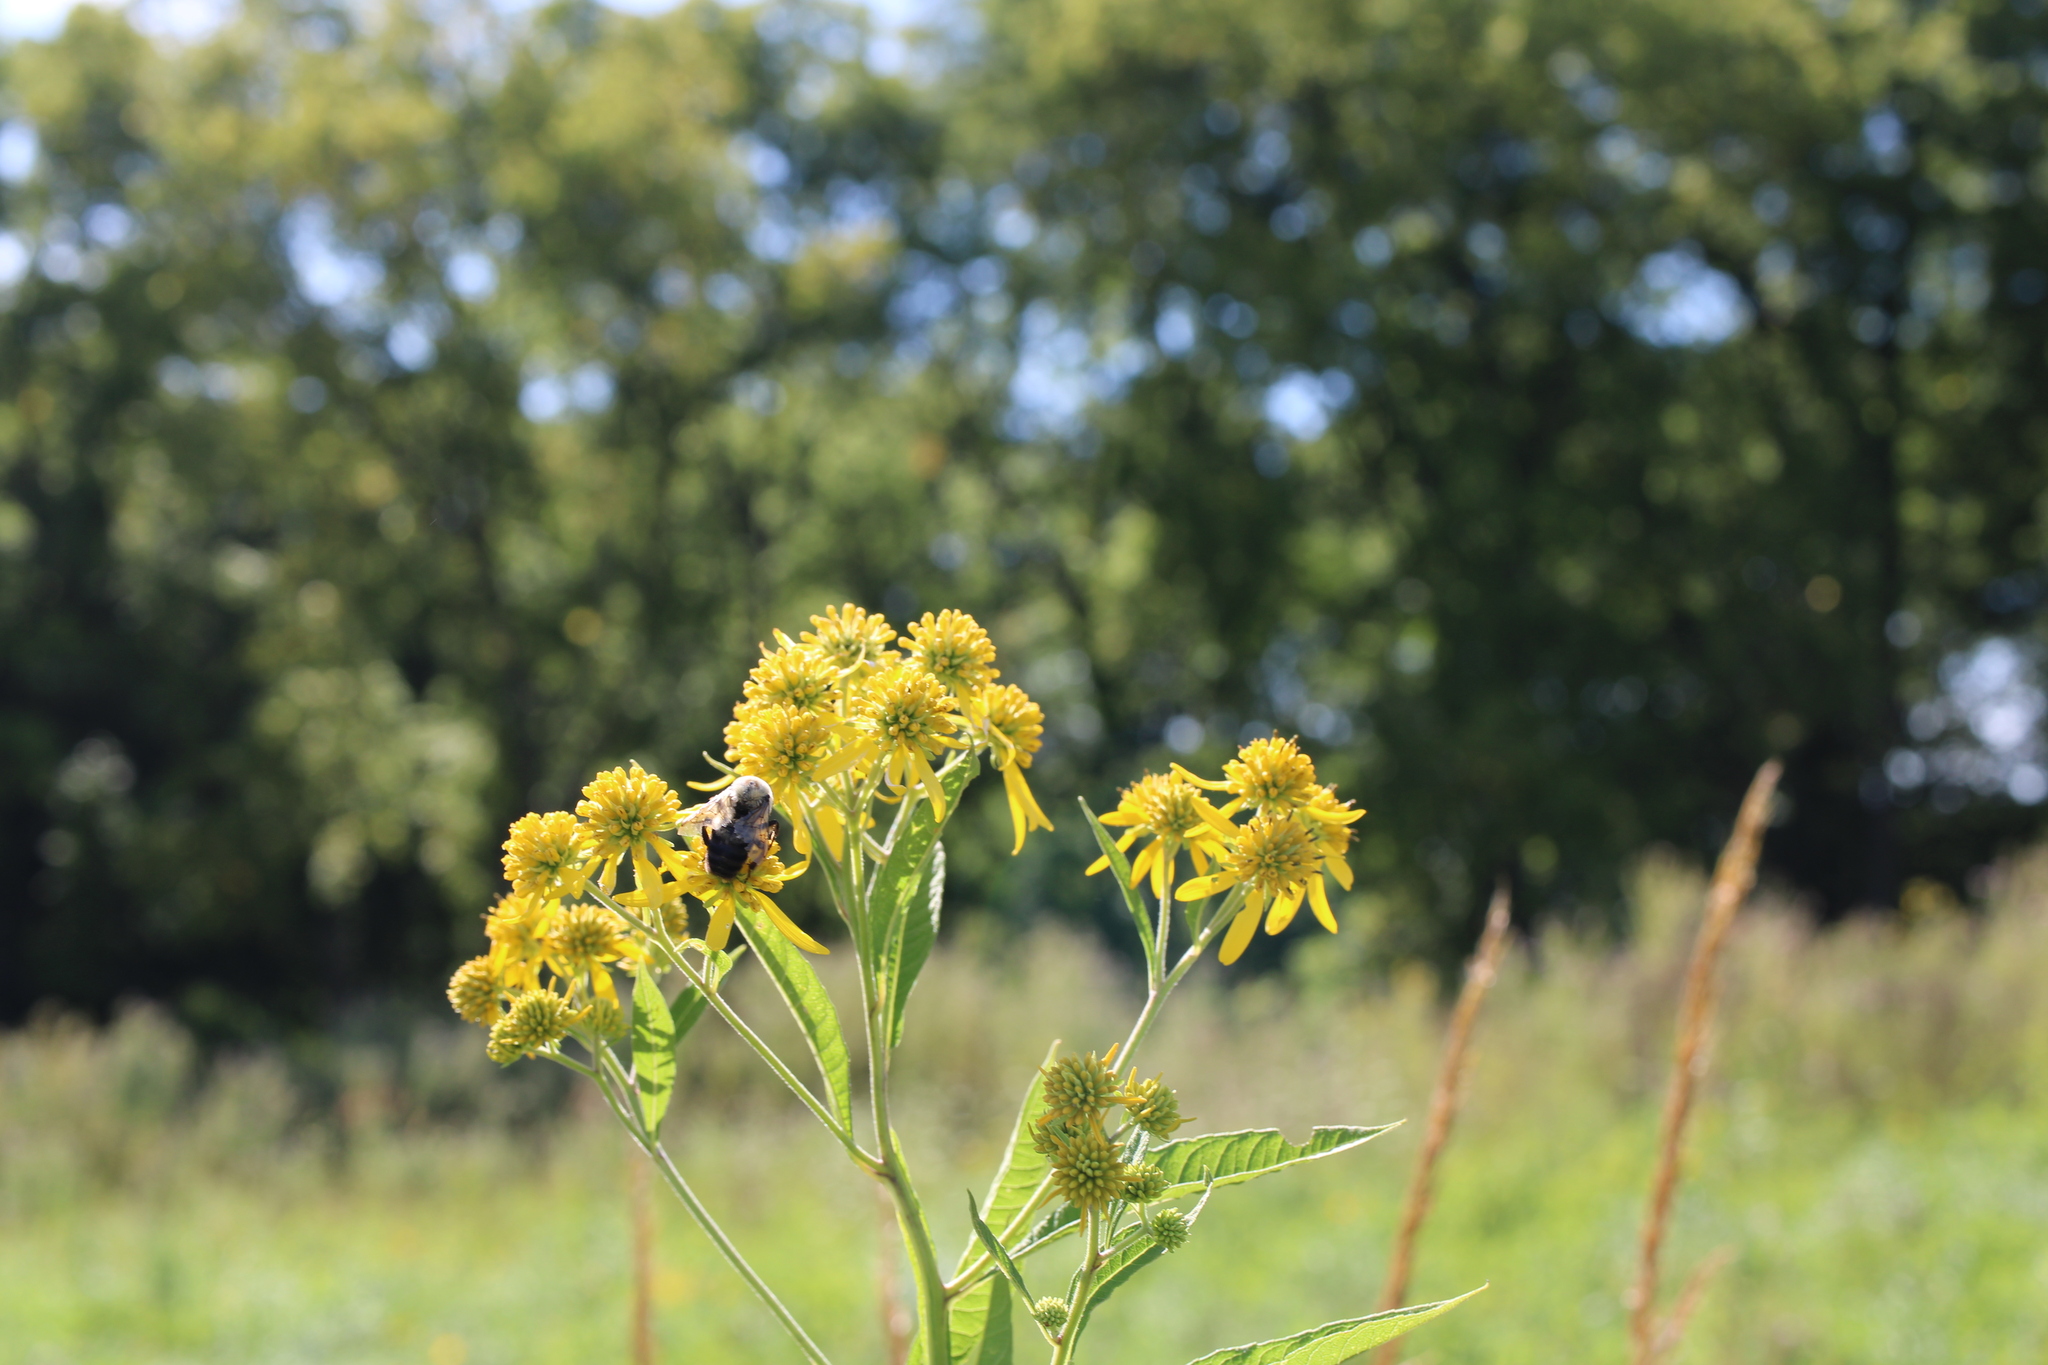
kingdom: Animalia
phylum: Arthropoda
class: Insecta
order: Hymenoptera
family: Apidae
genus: Bombus
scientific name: Bombus griseocollis
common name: Brown-belted bumble bee
